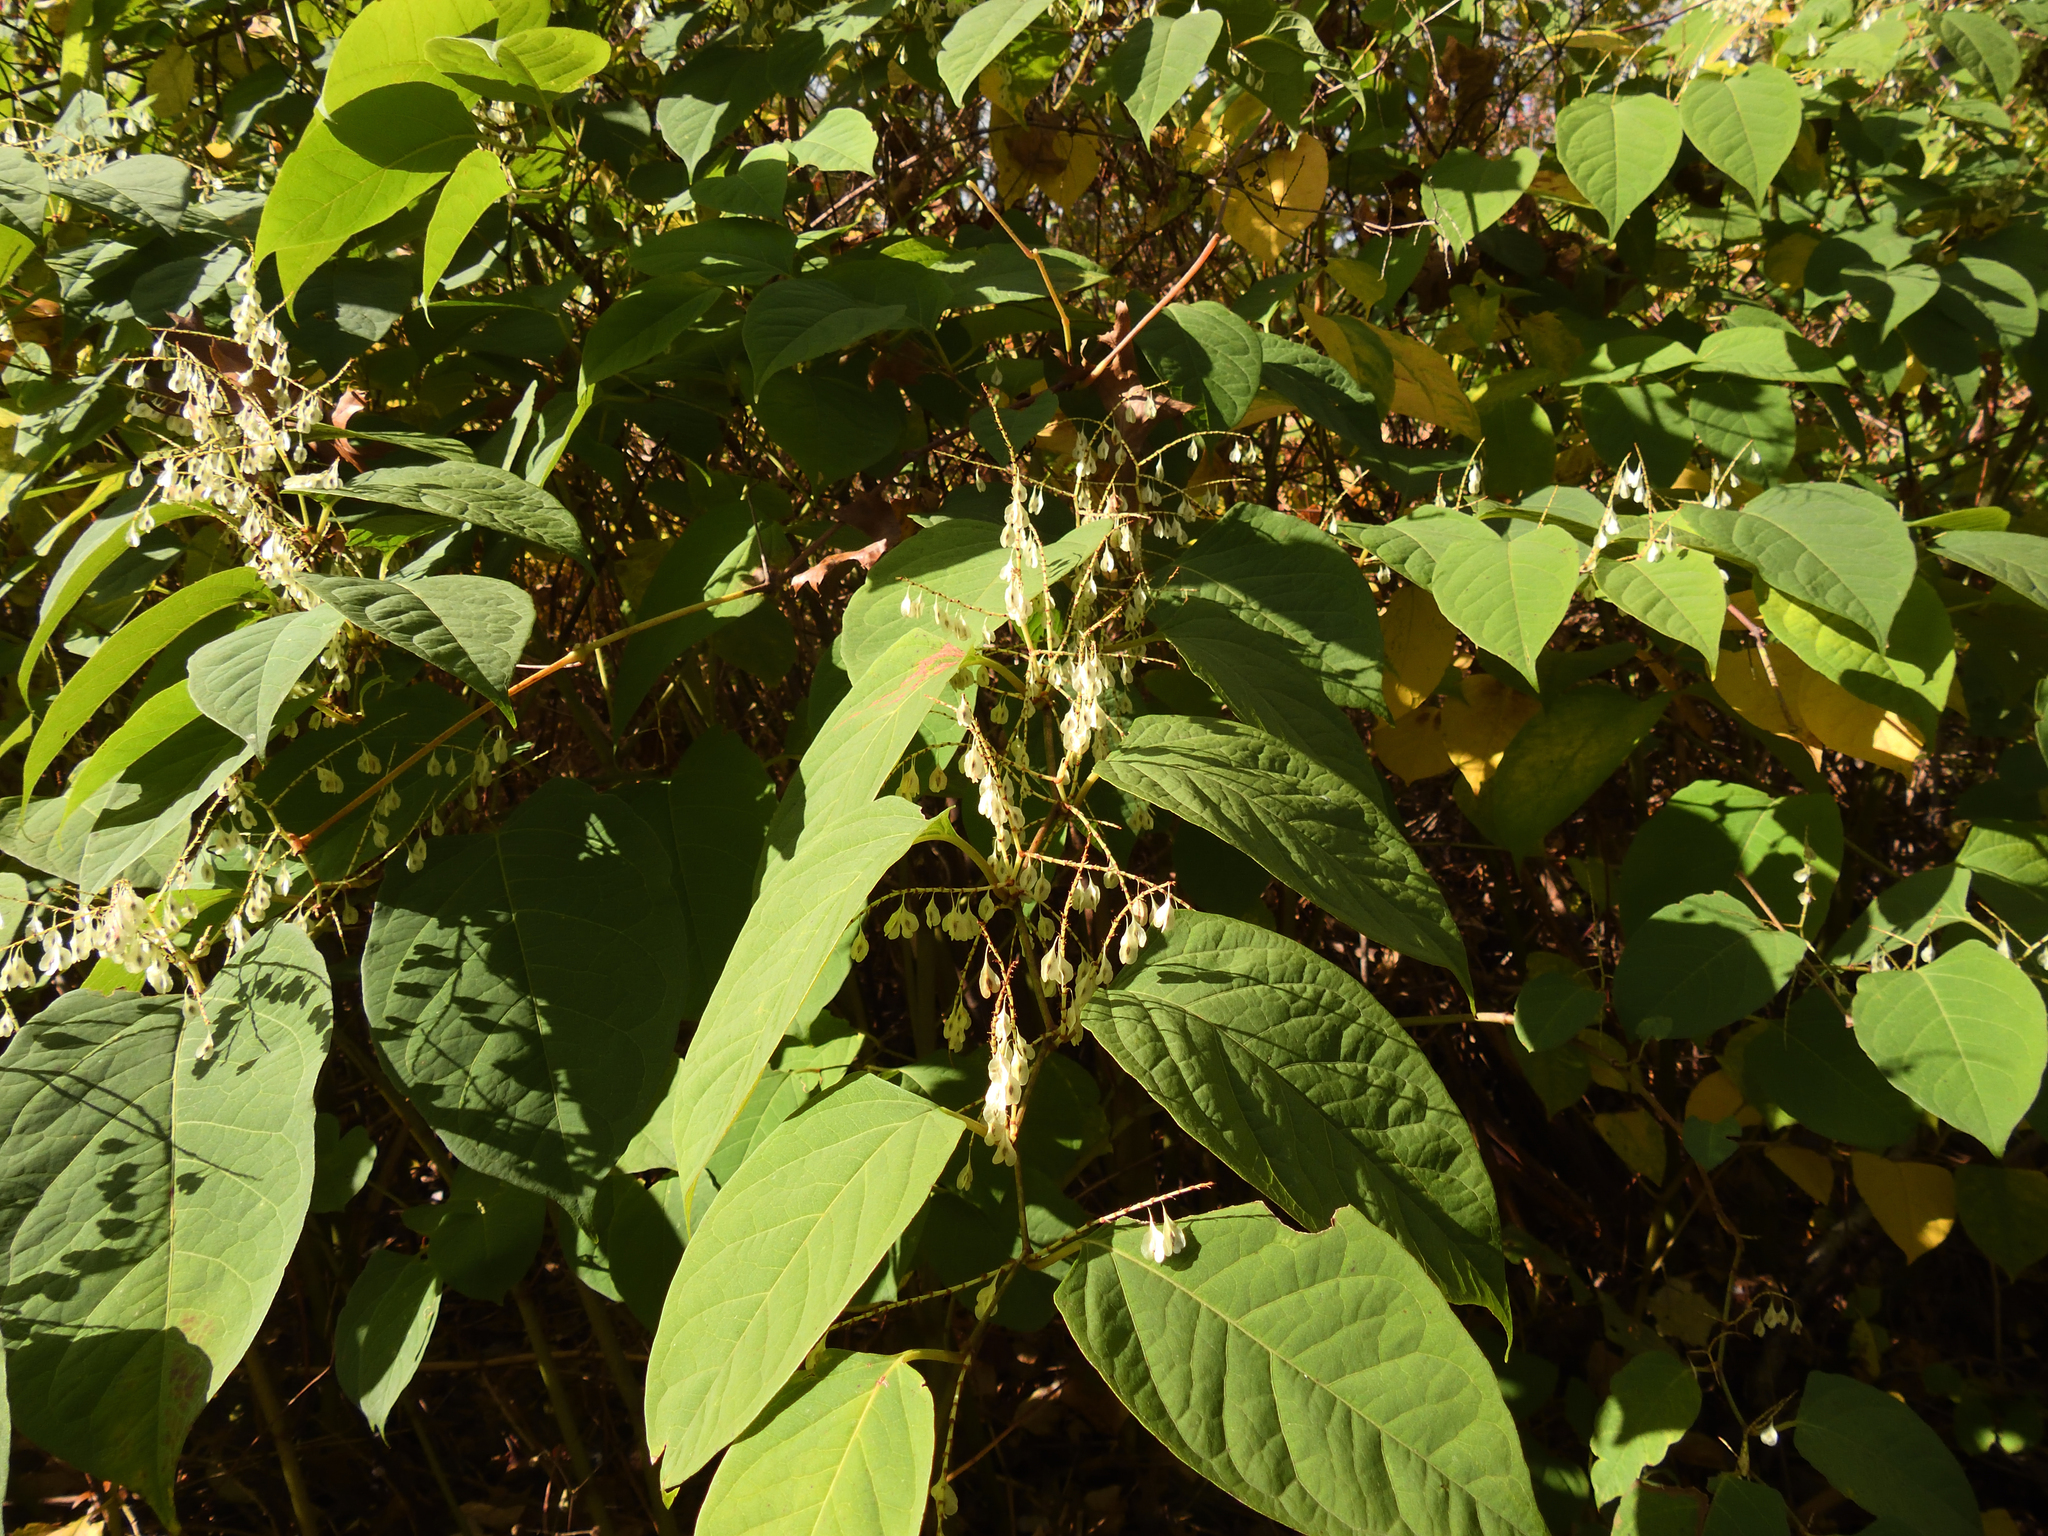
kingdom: Plantae
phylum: Tracheophyta
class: Magnoliopsida
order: Caryophyllales
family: Polygonaceae
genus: Reynoutria
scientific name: Reynoutria japonica
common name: Japanese knotweed
